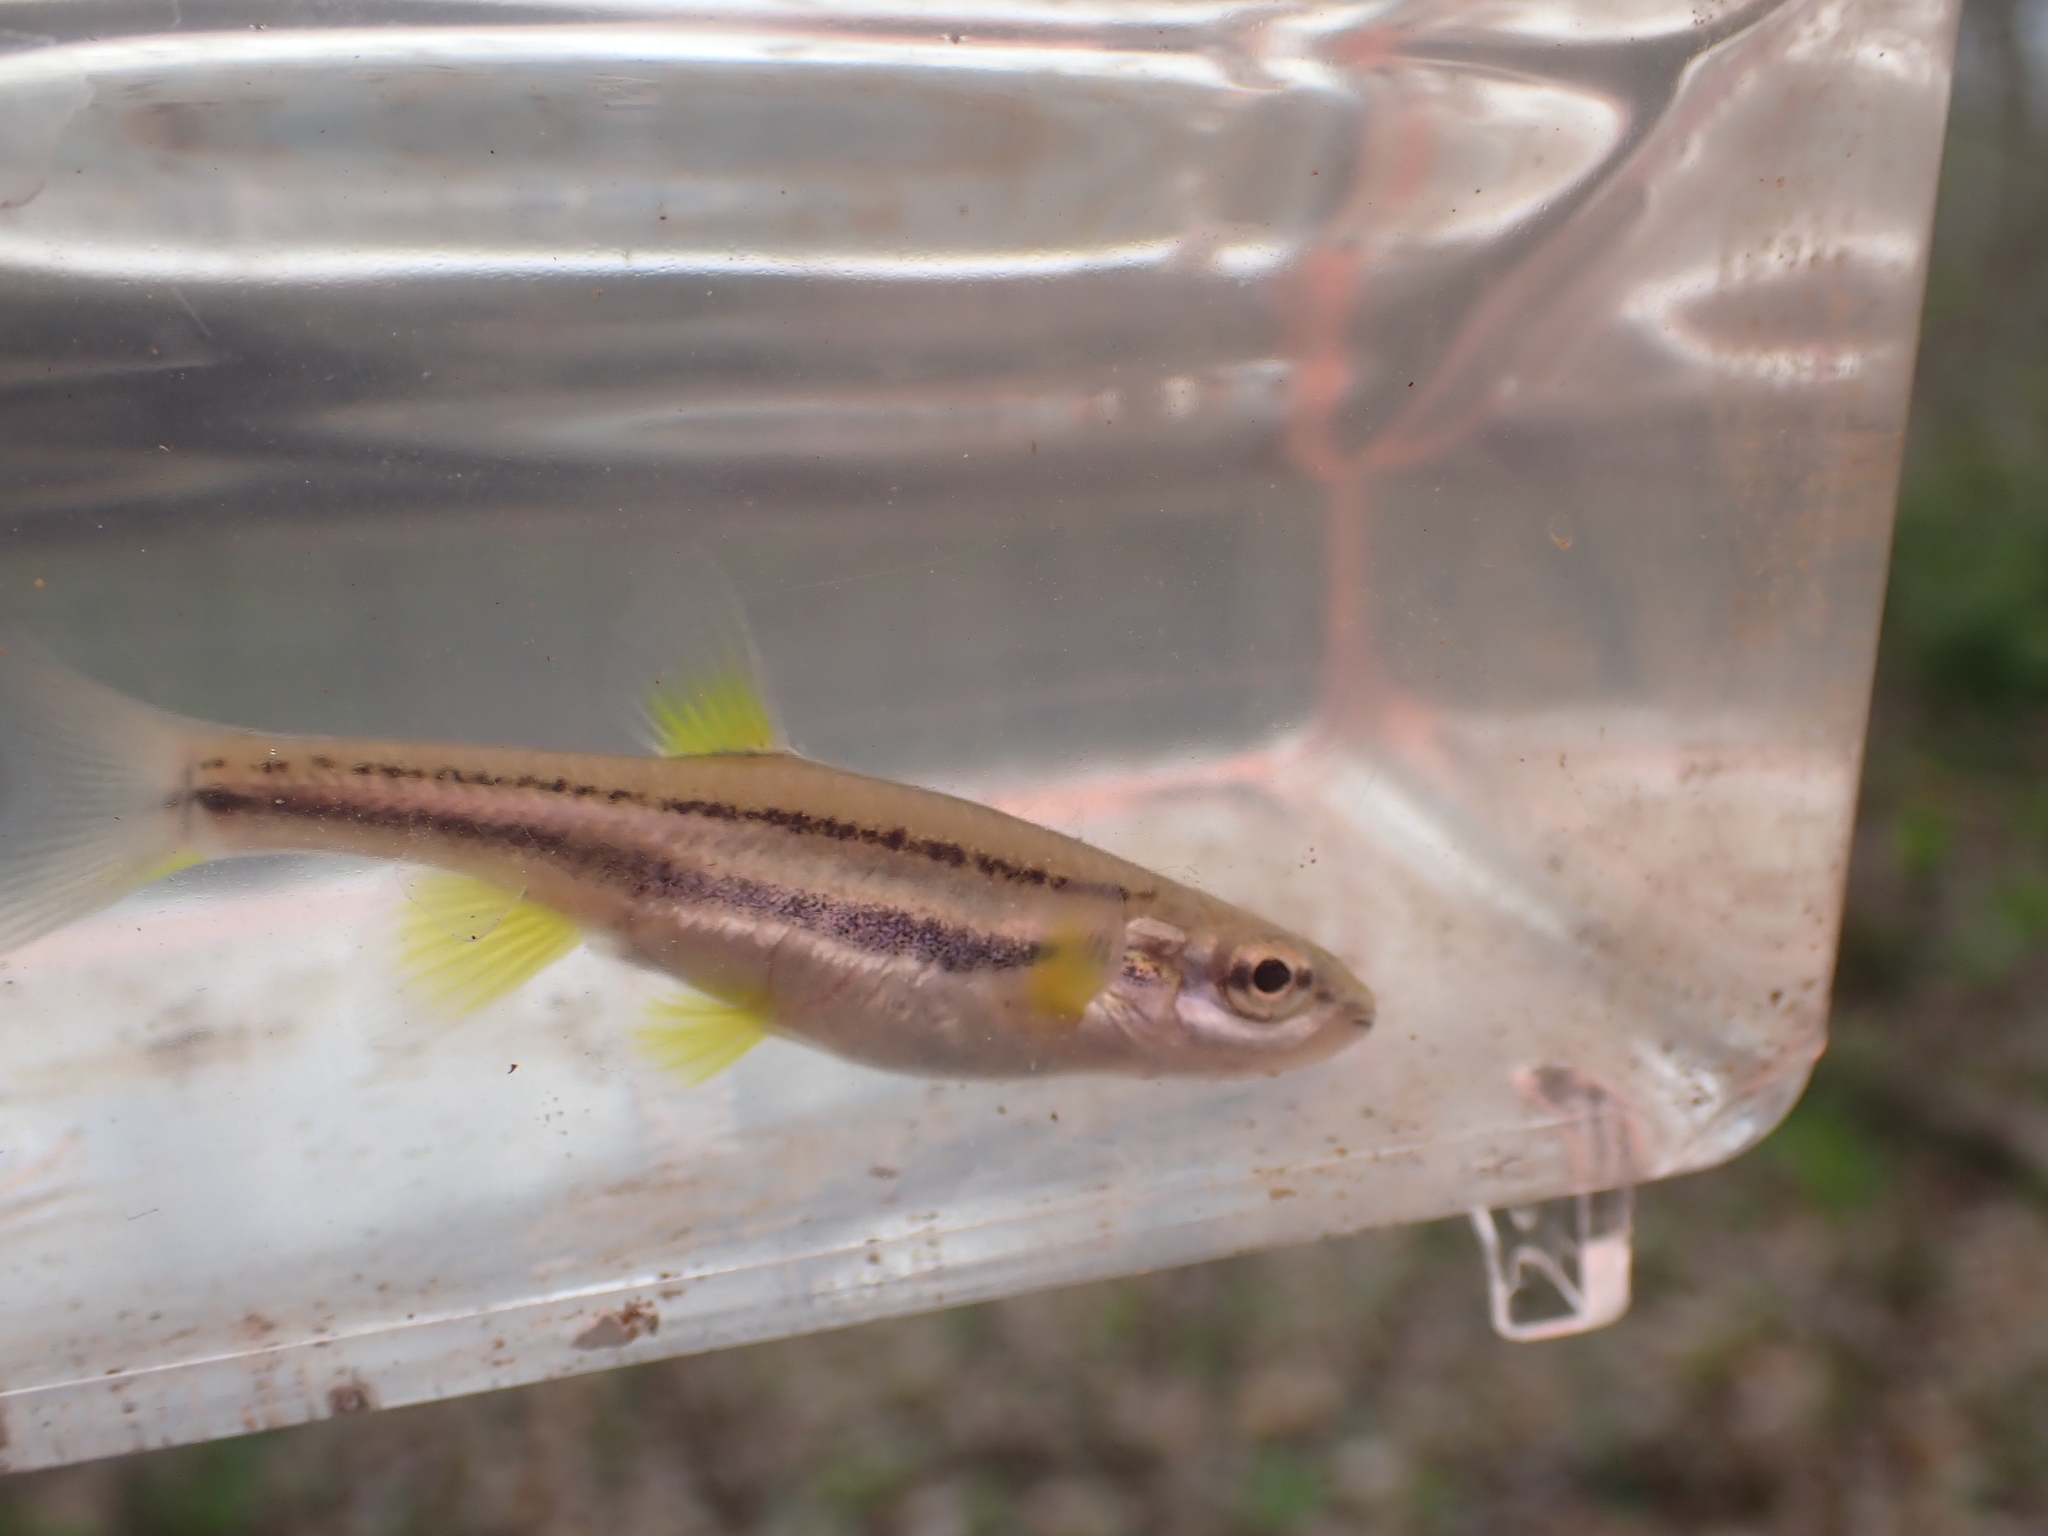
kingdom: Animalia
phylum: Chordata
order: Cypriniformes
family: Cyprinidae
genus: Chrosomus
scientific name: Chrosomus erythrogaster
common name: Southern redbelly dace
